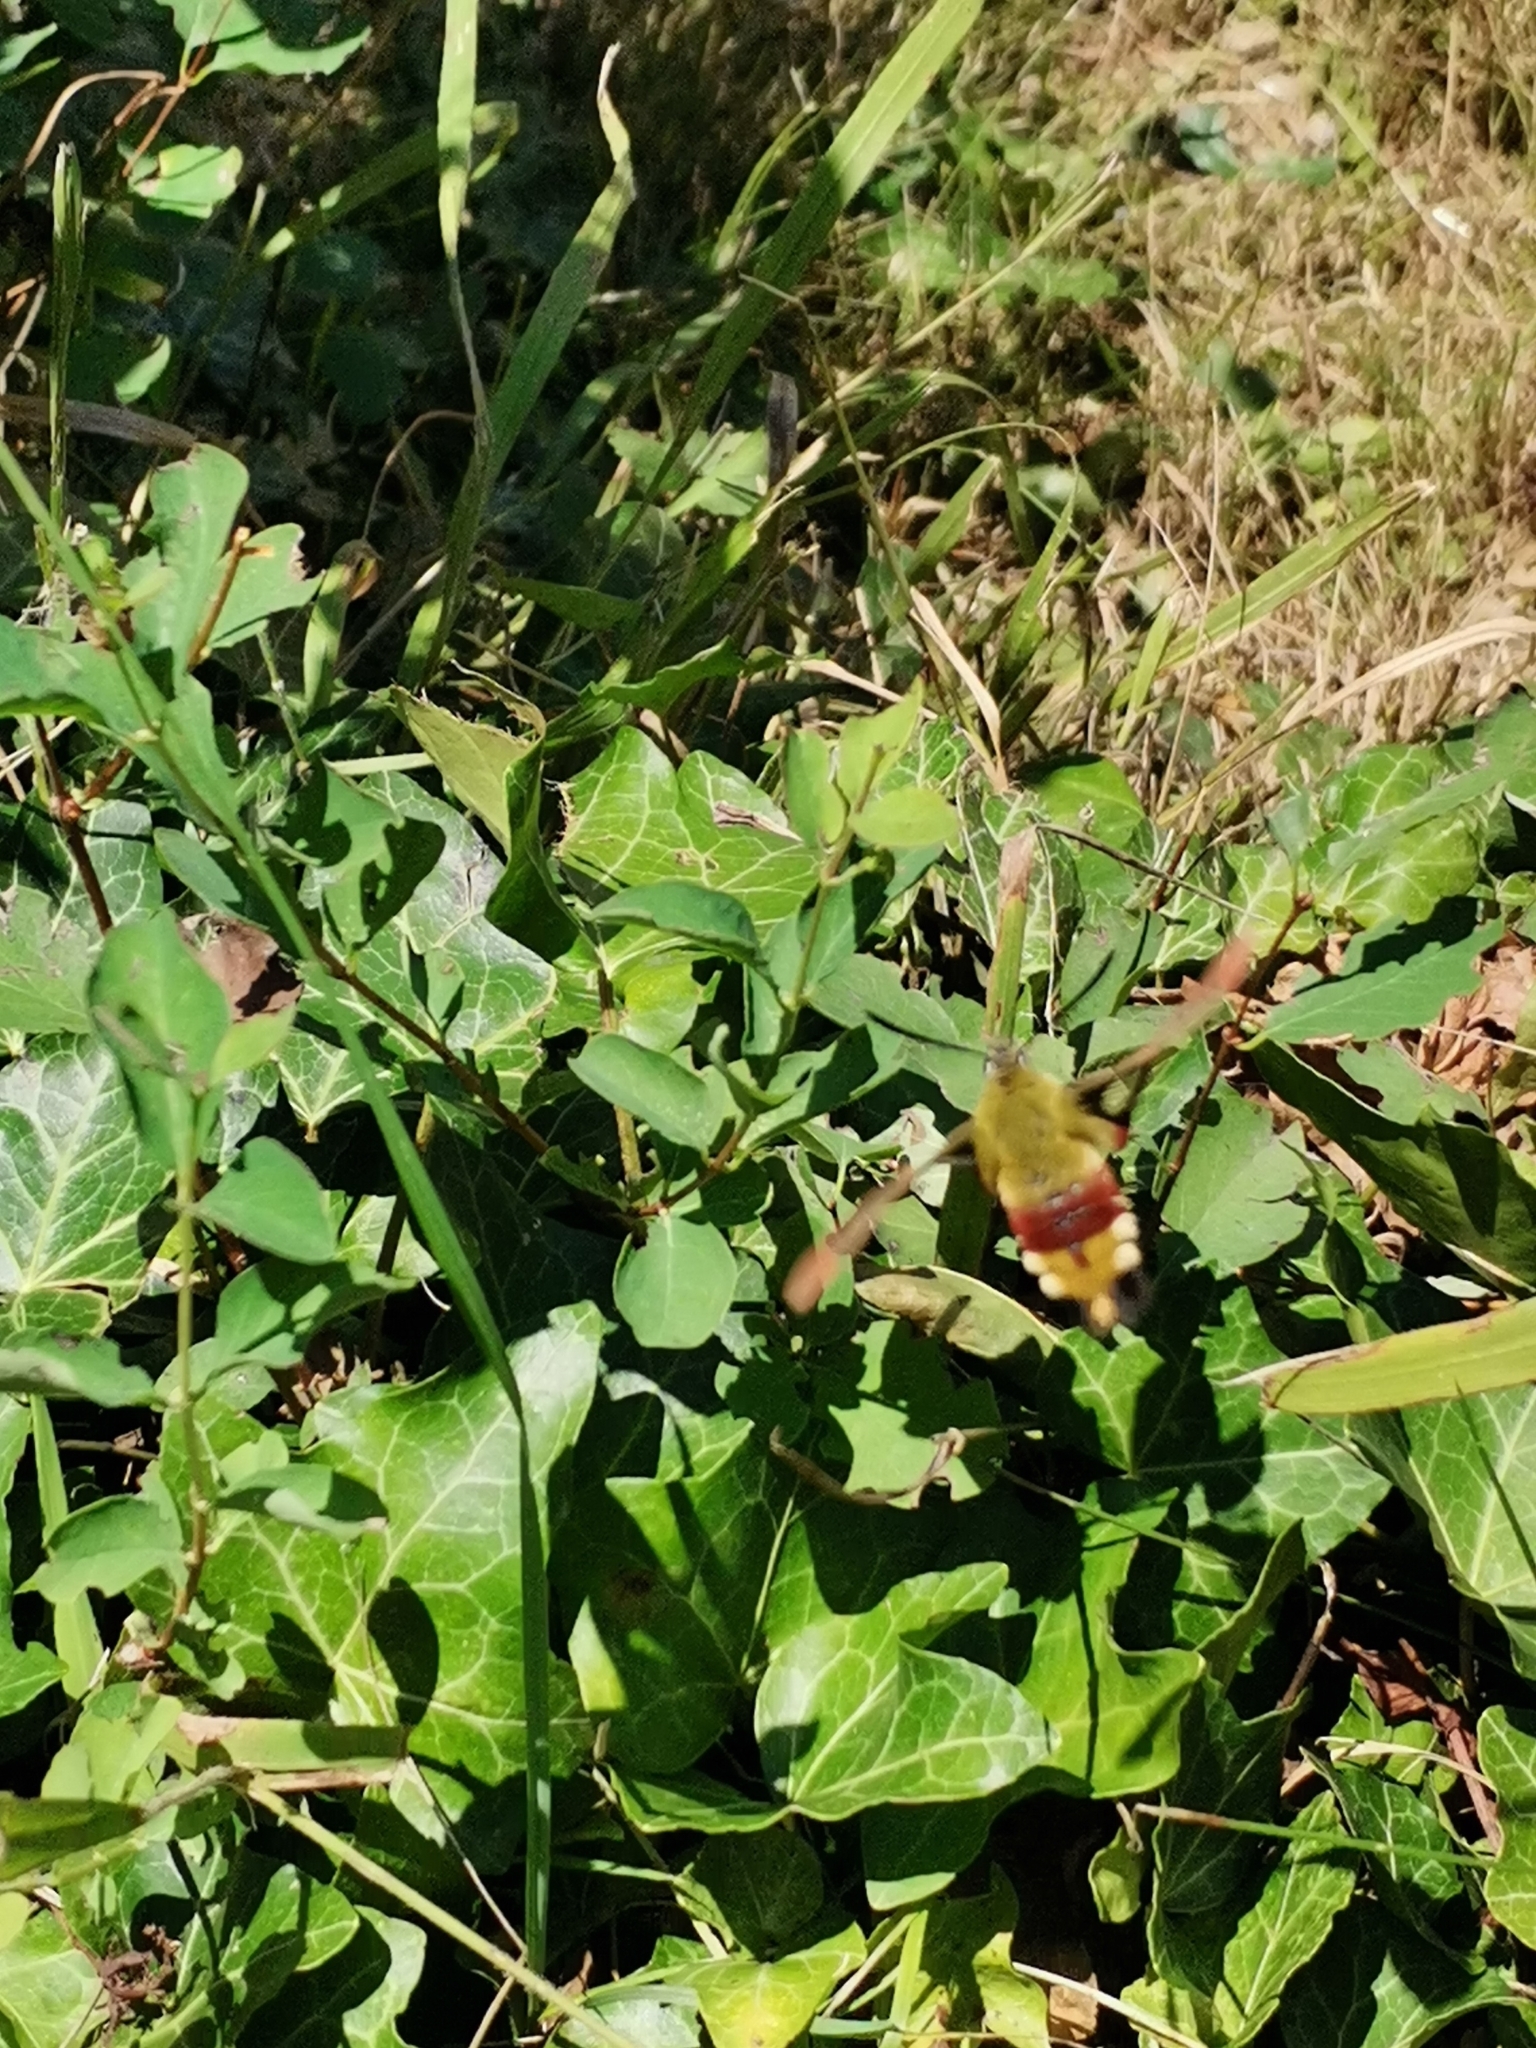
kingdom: Animalia
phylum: Arthropoda
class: Insecta
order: Lepidoptera
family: Sphingidae
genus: Hemaris
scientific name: Hemaris fuciformis
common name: Broad-bordered bee hawk-moth
